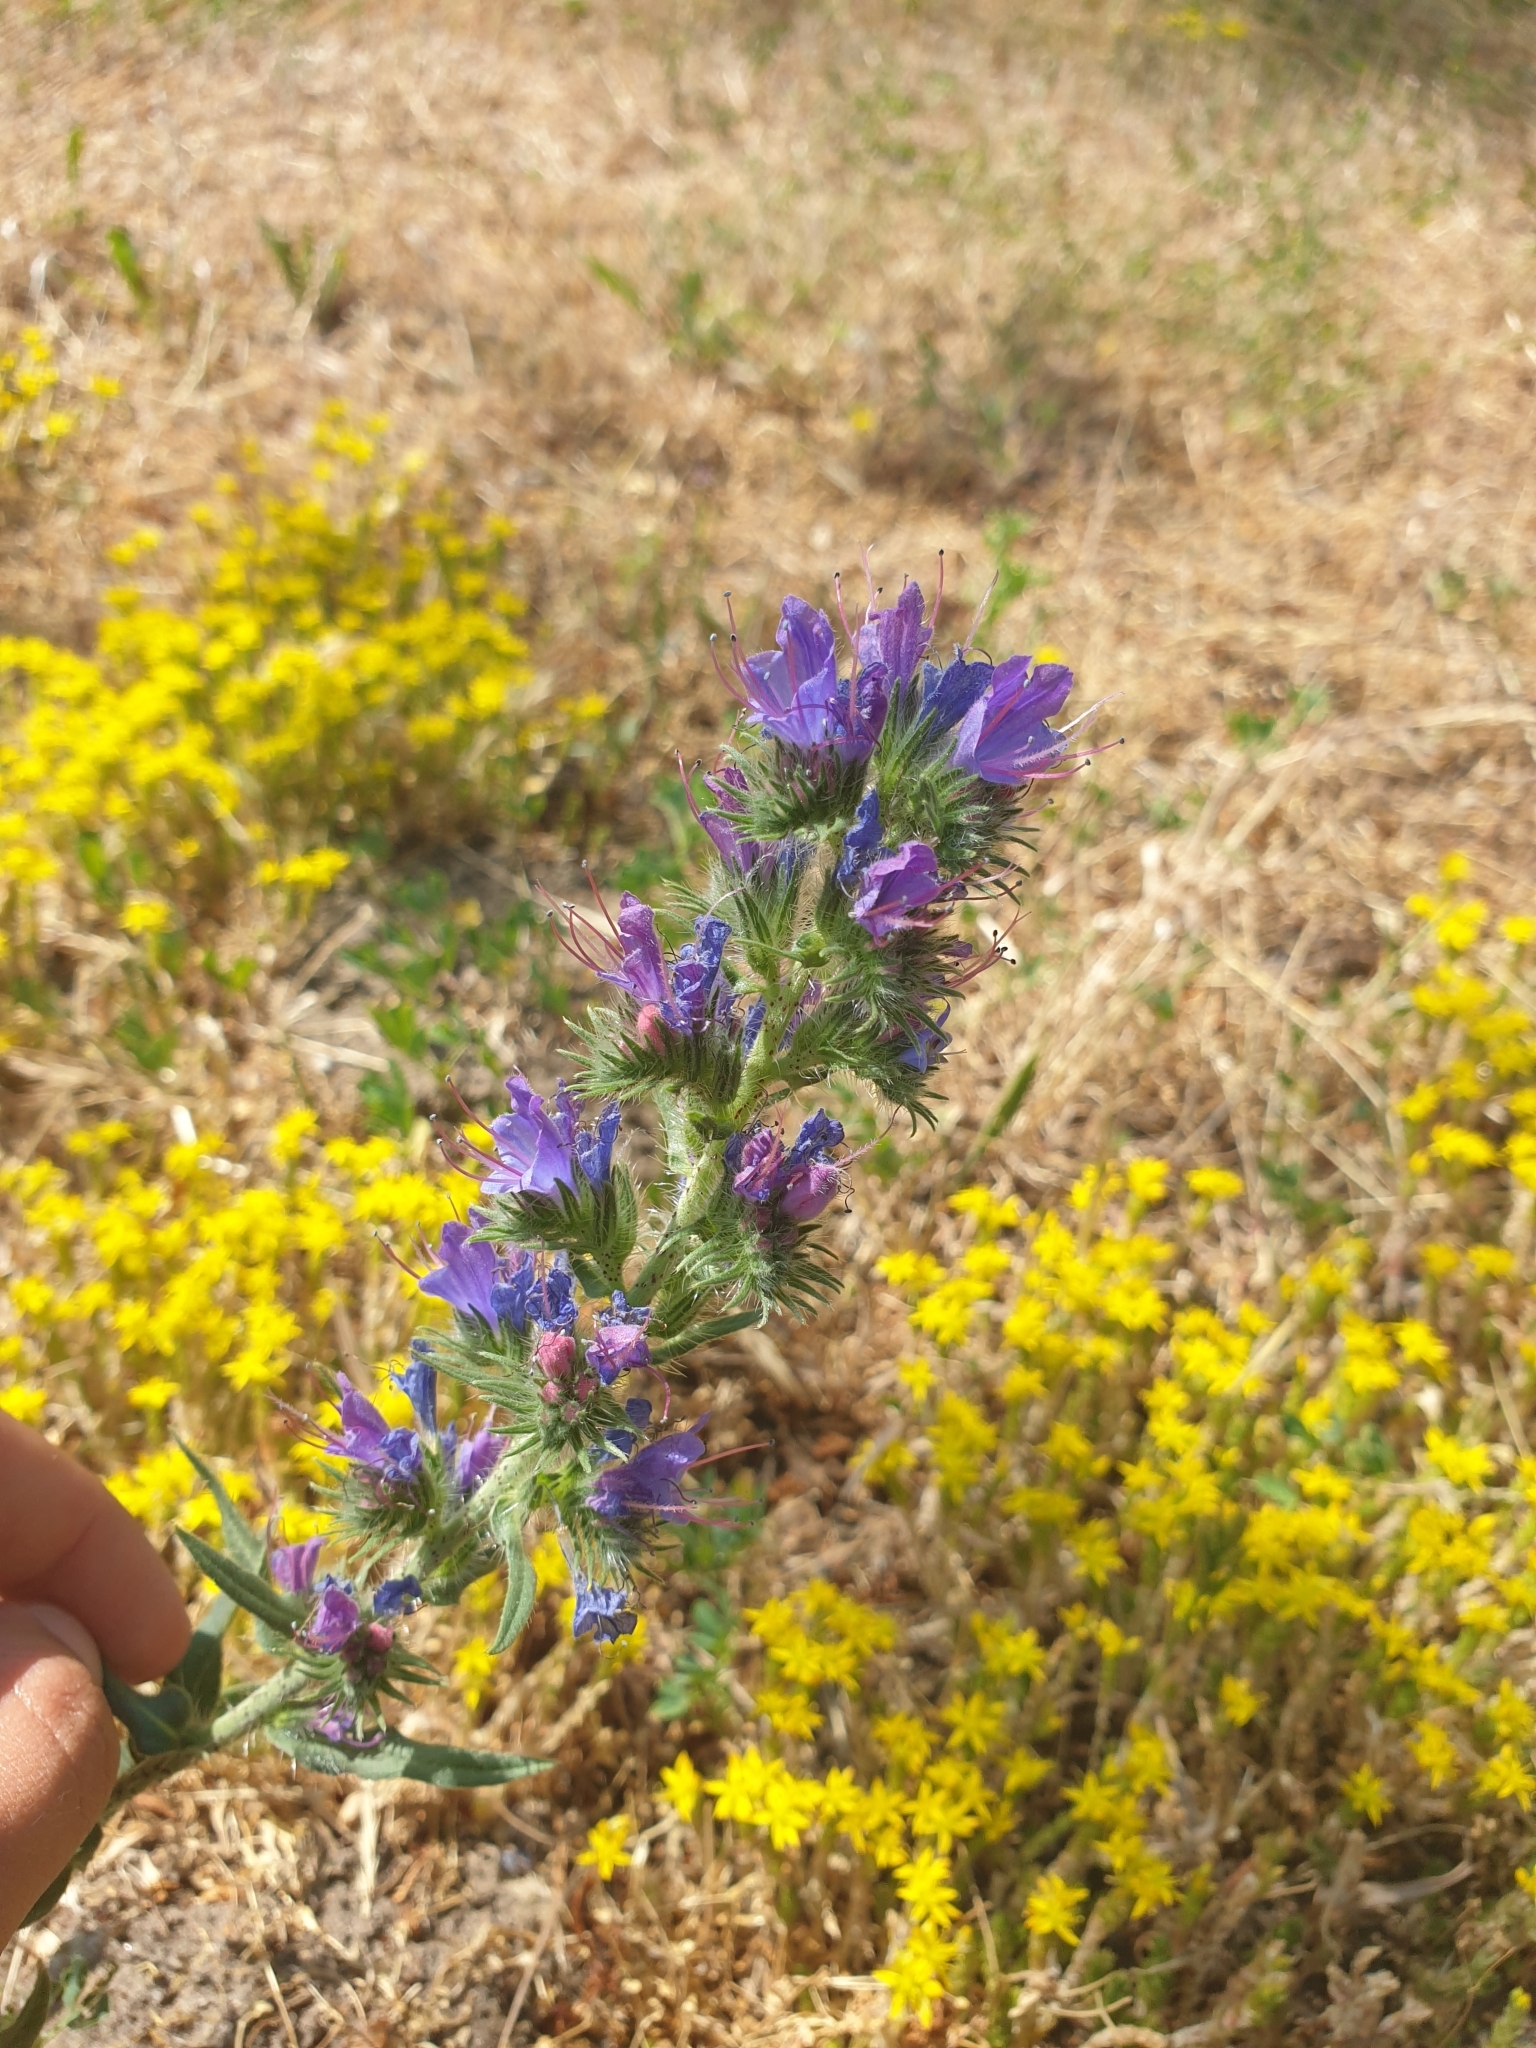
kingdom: Plantae
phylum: Tracheophyta
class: Magnoliopsida
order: Boraginales
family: Boraginaceae
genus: Echium
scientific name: Echium vulgare
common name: Common viper's bugloss
